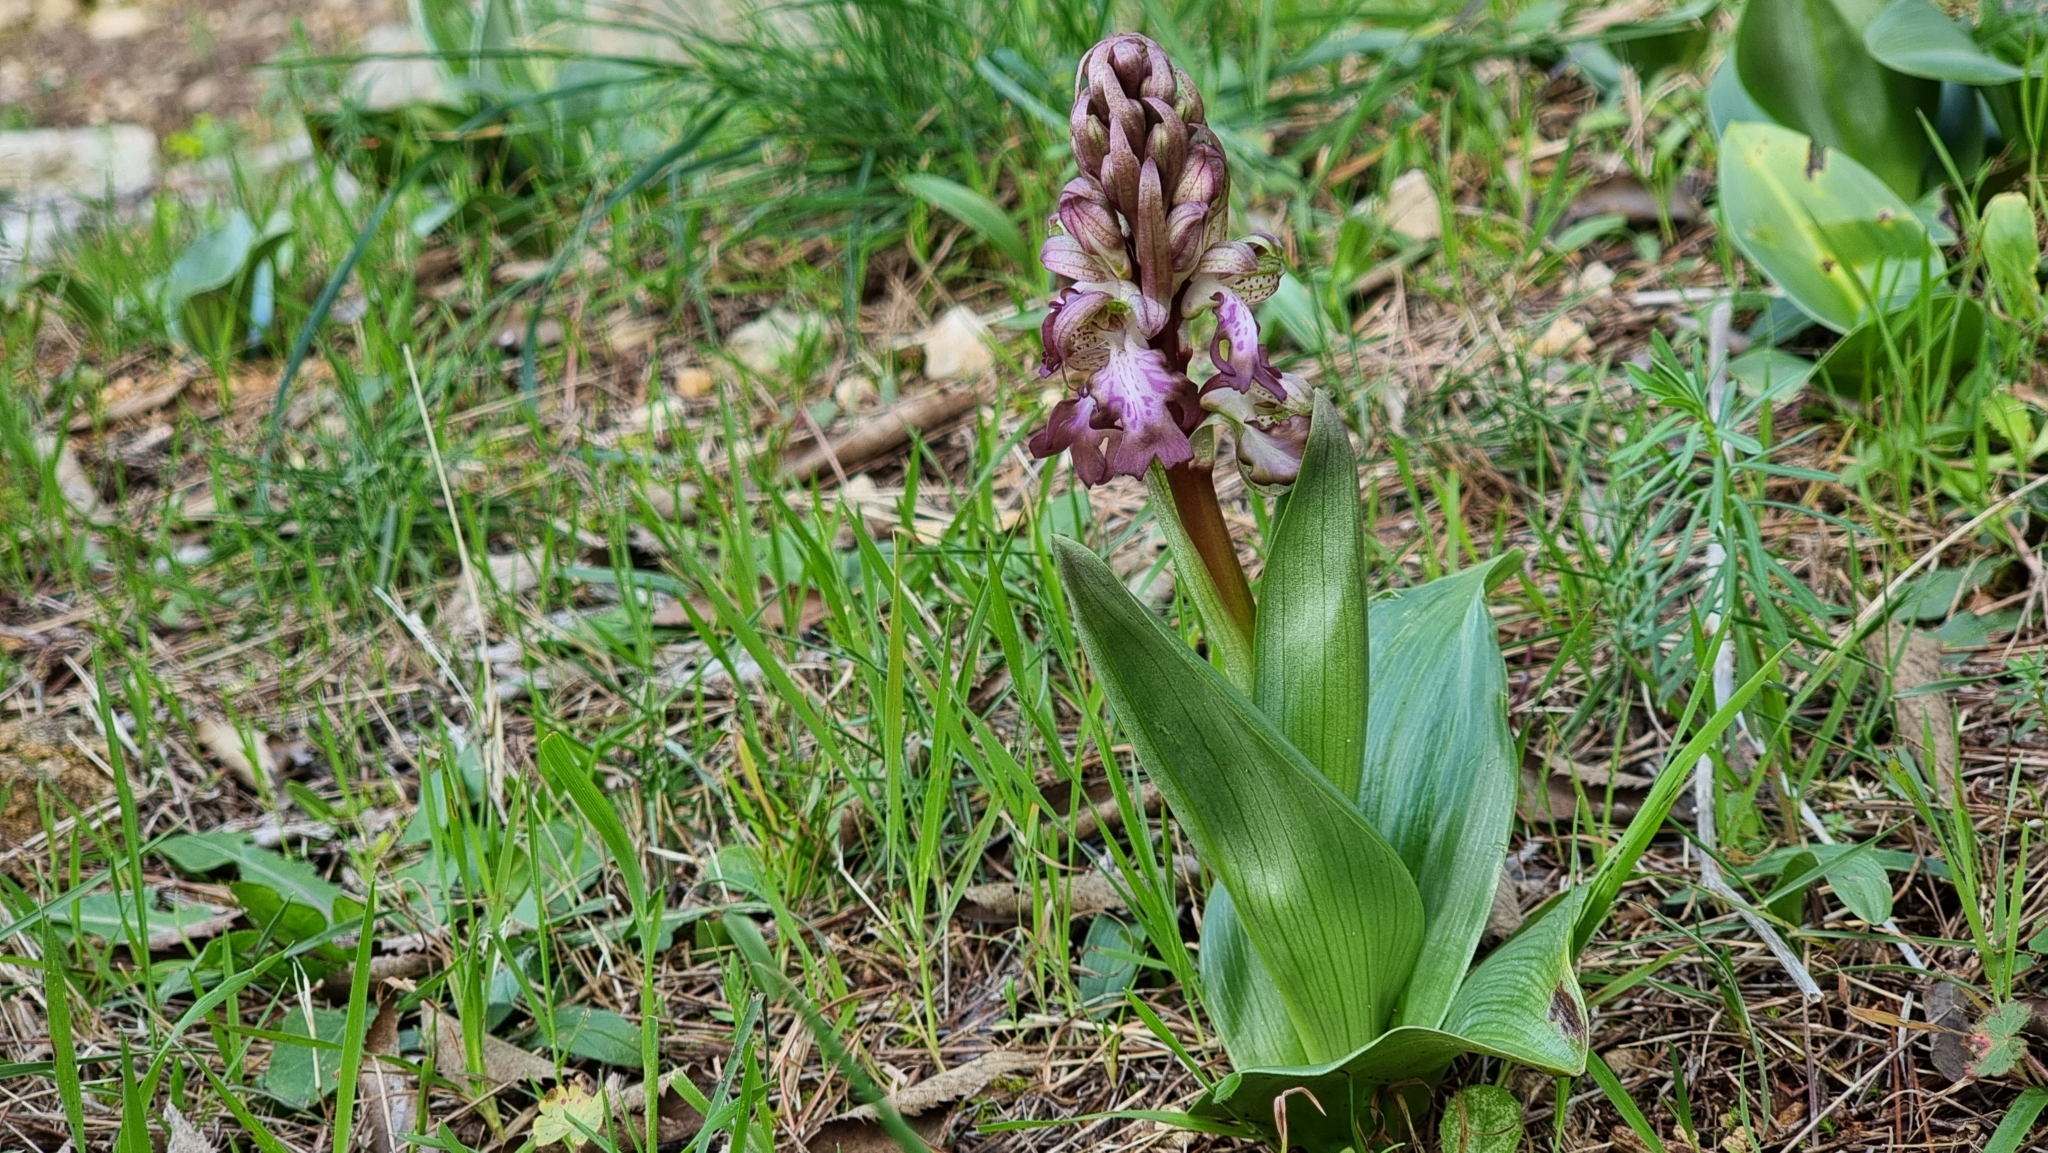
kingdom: Plantae
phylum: Tracheophyta
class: Liliopsida
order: Asparagales
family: Orchidaceae
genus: Himantoglossum
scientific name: Himantoglossum robertianum
